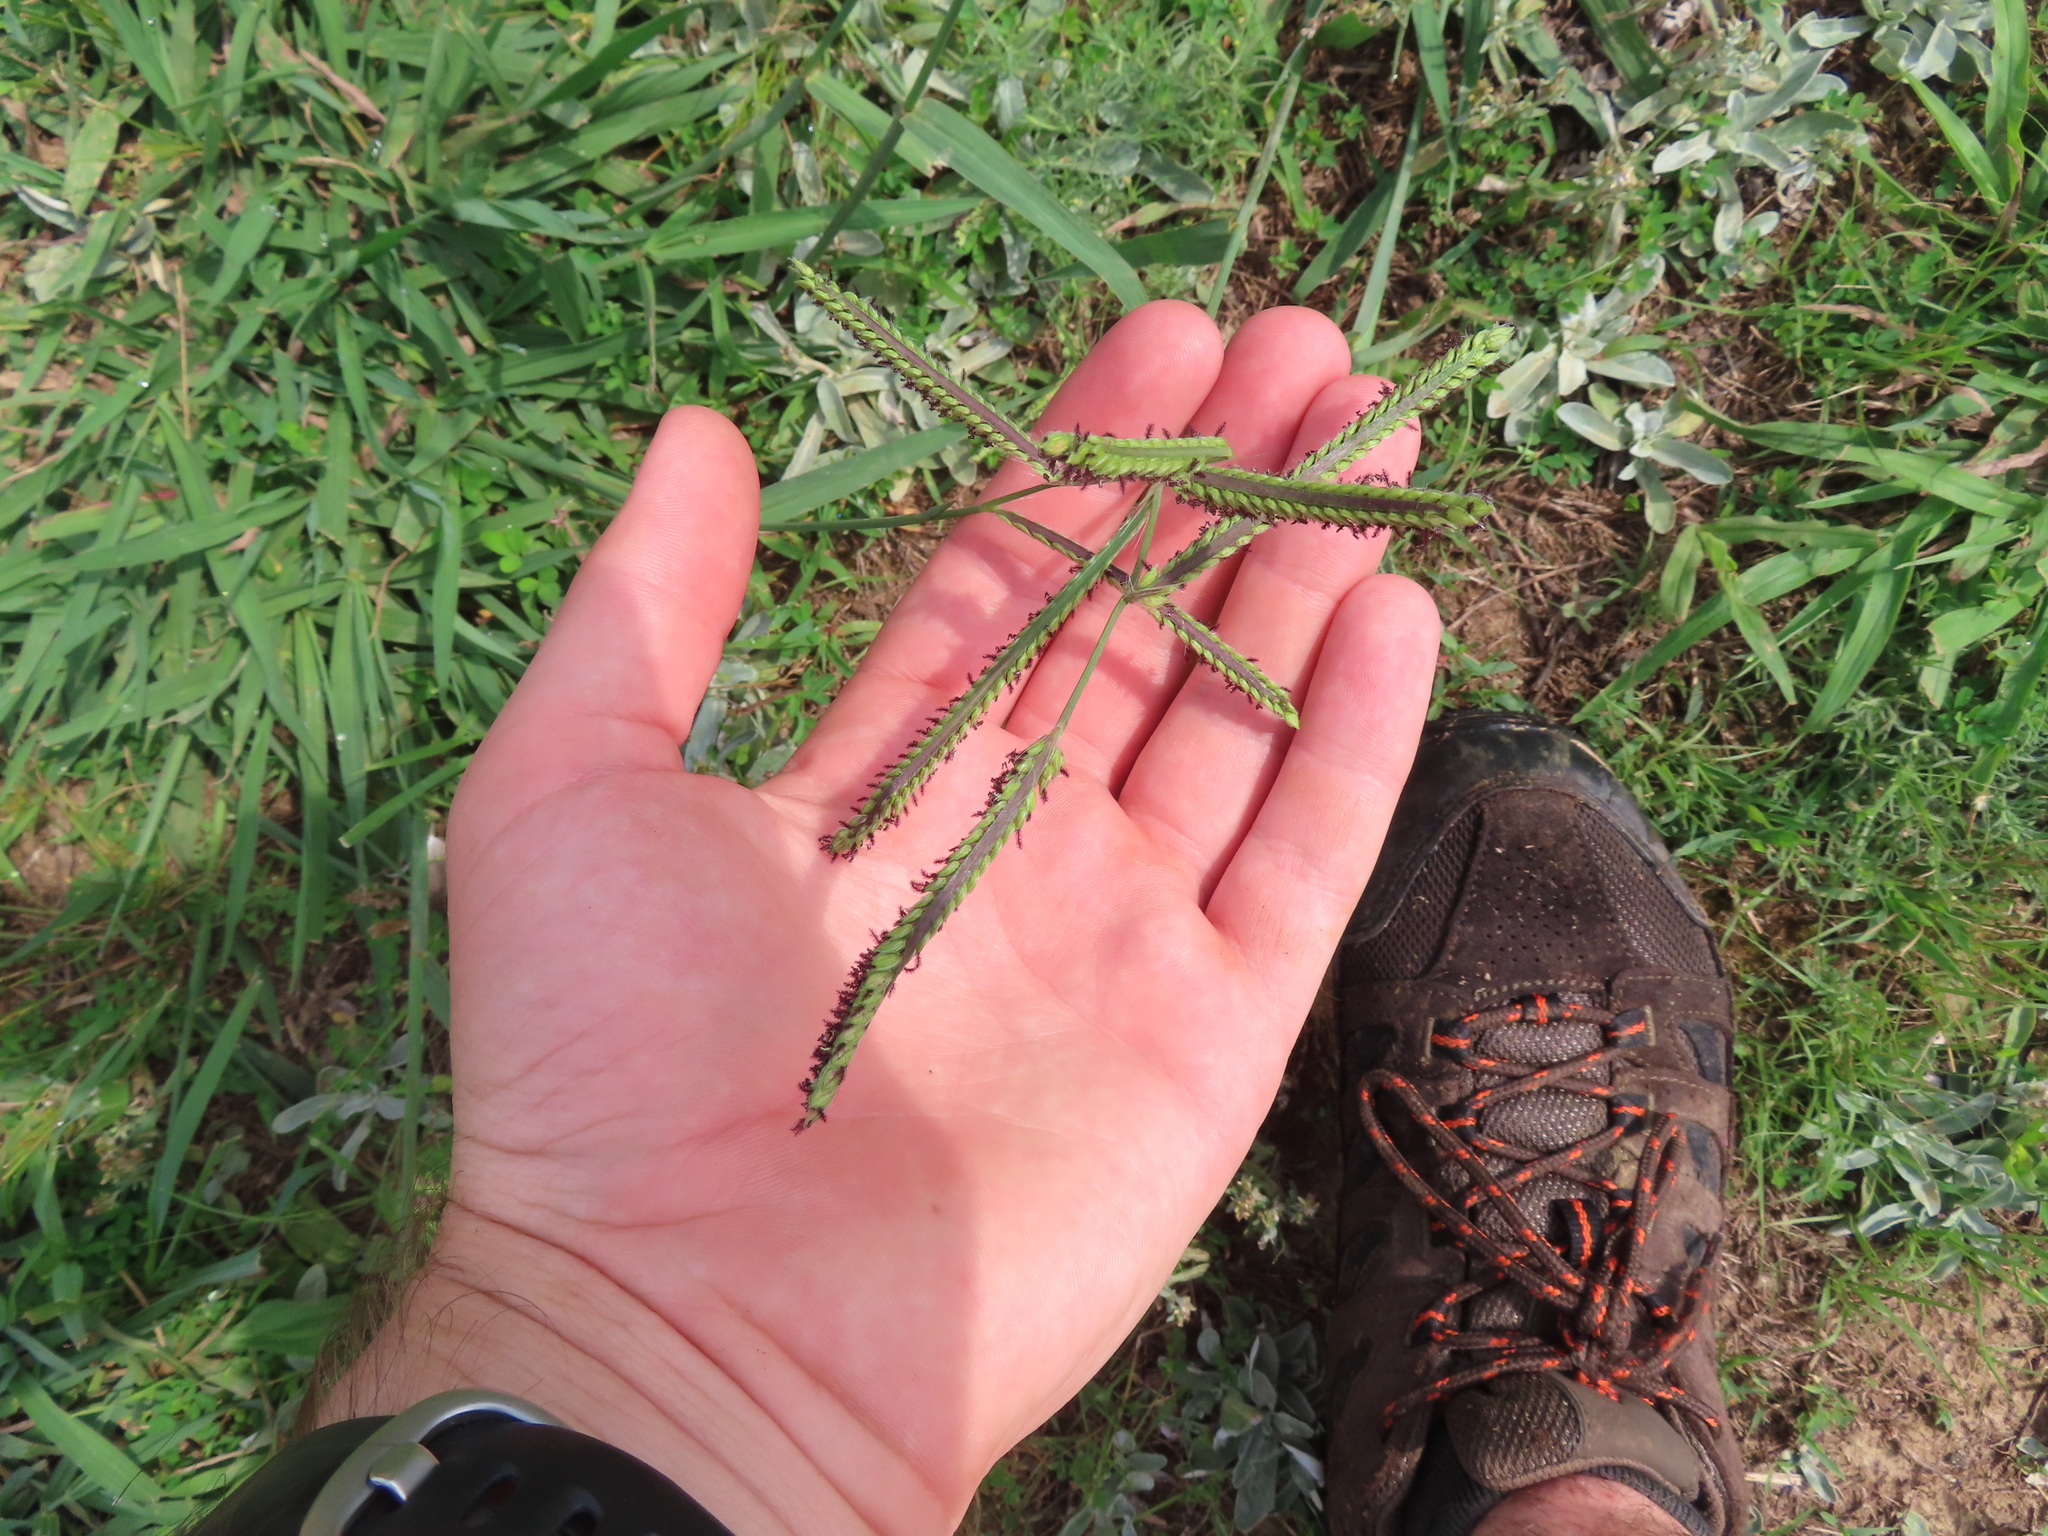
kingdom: Plantae
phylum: Tracheophyta
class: Liliopsida
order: Poales
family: Poaceae
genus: Paspalum
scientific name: Paspalum dilatatum
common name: Dallisgrass
